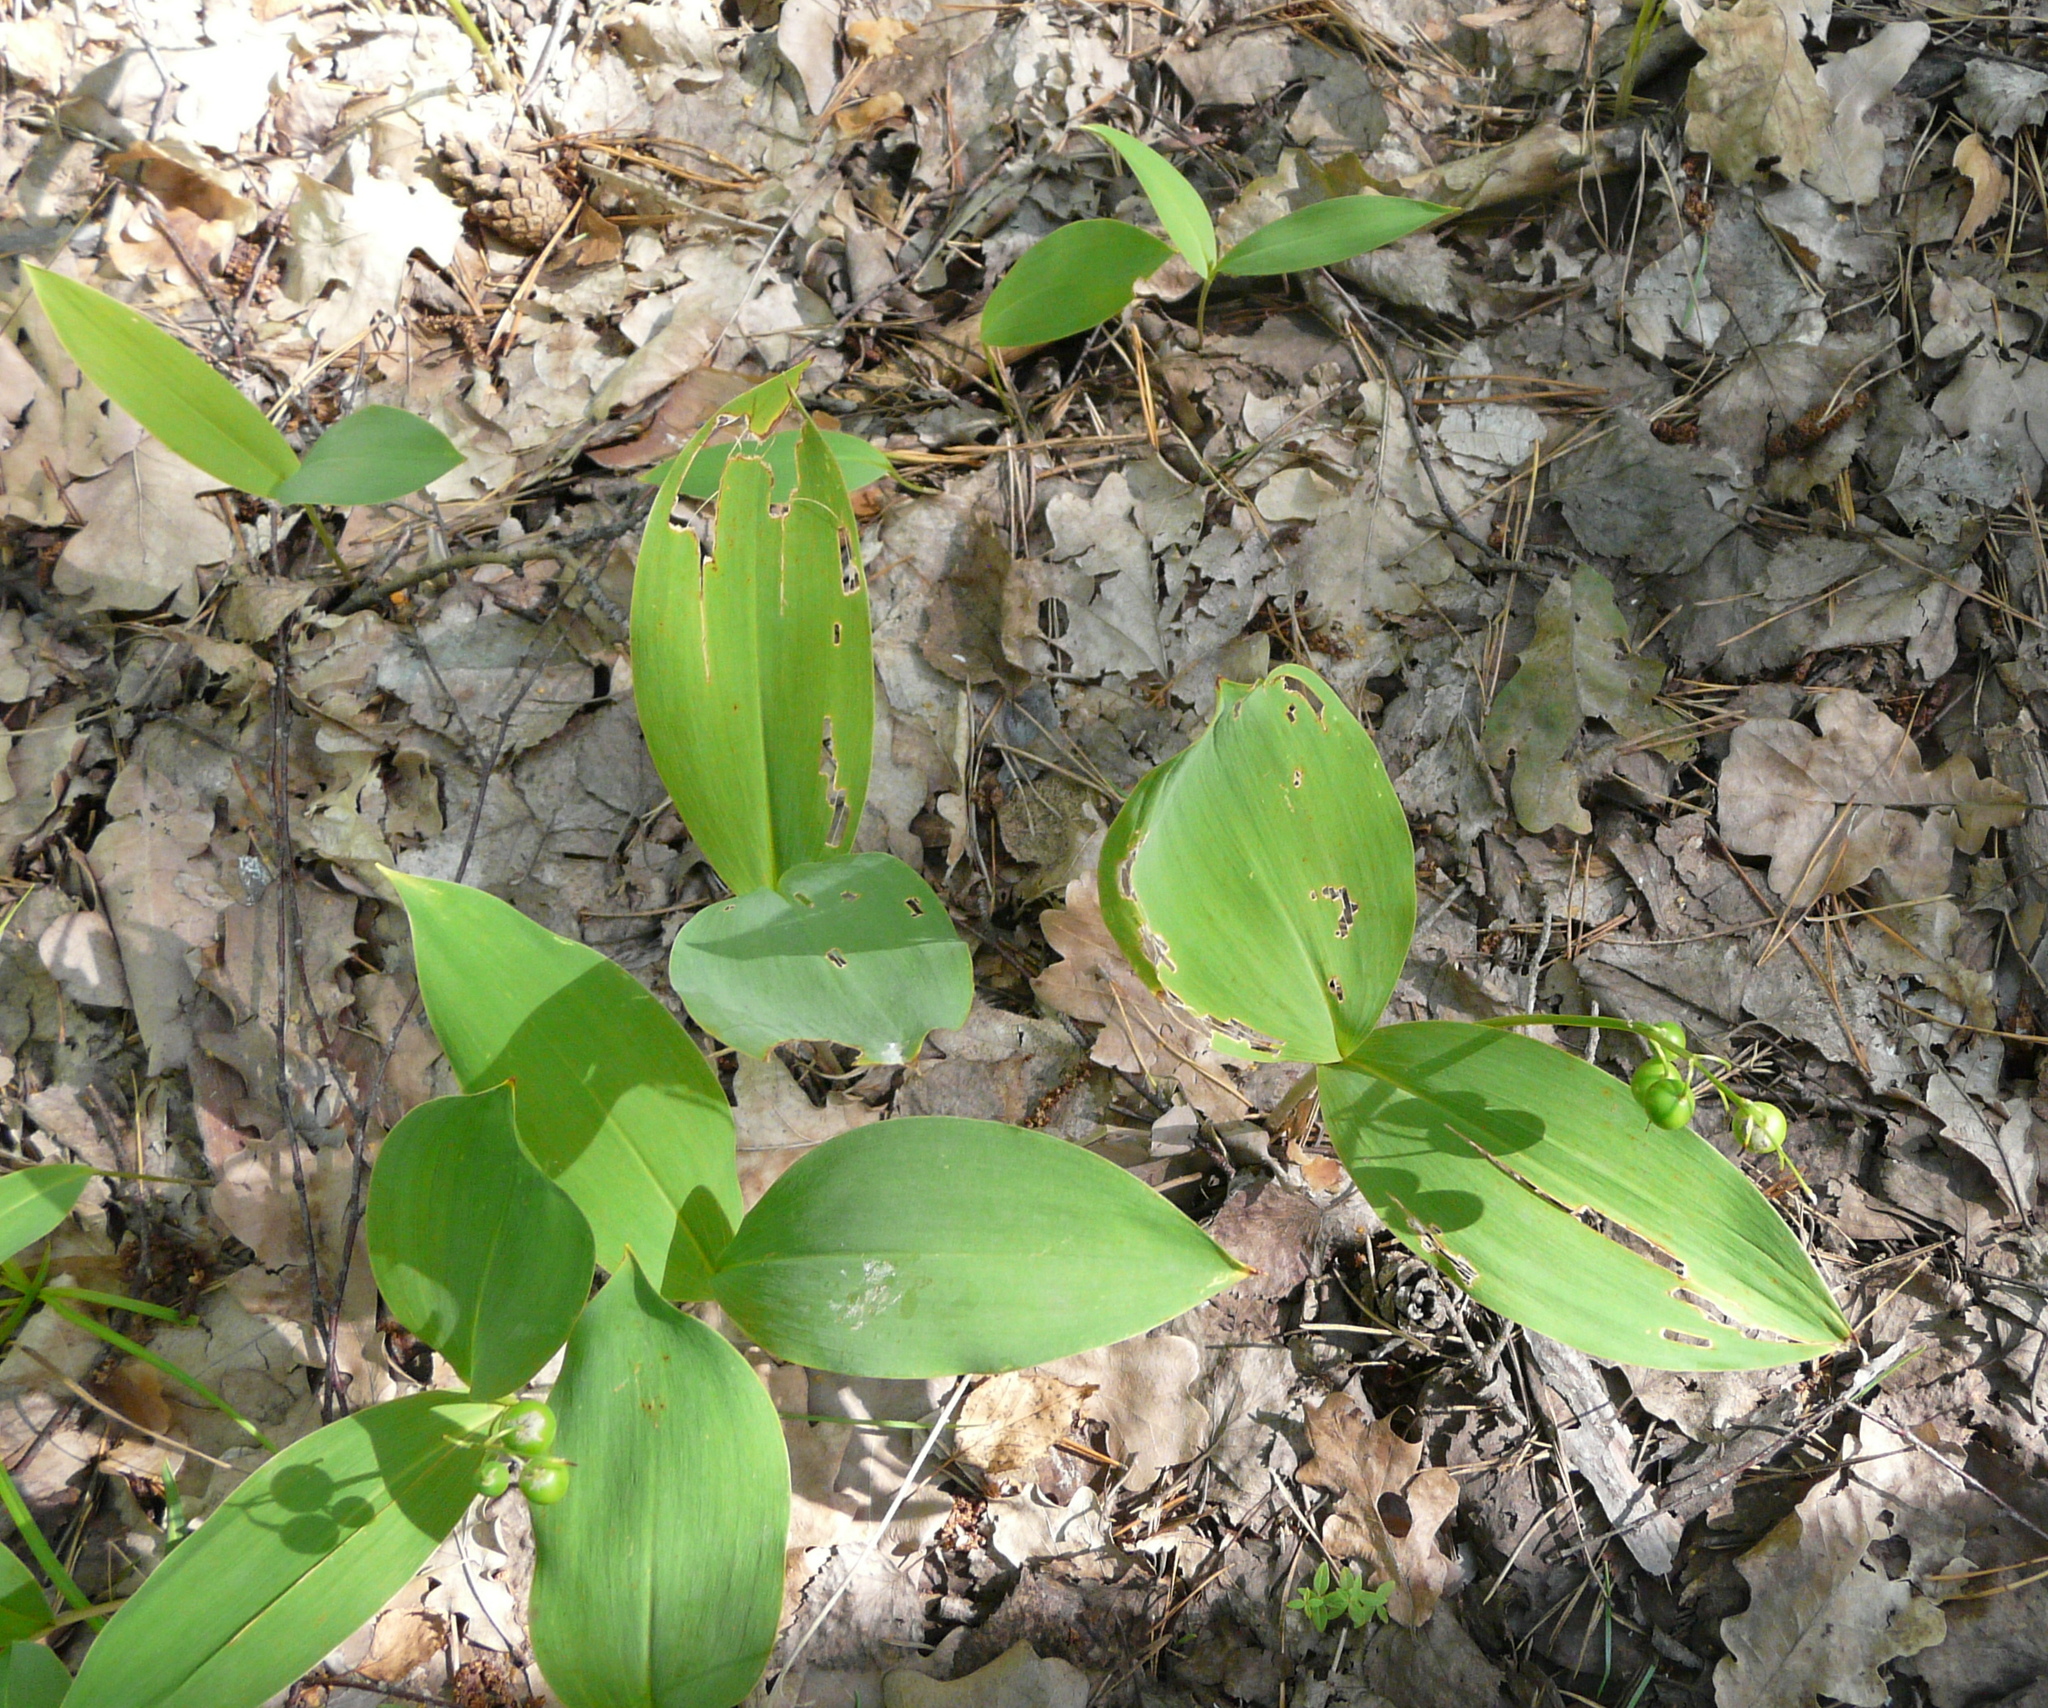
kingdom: Plantae
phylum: Tracheophyta
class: Liliopsida
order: Asparagales
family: Asparagaceae
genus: Convallaria
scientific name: Convallaria majalis
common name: Lily-of-the-valley
